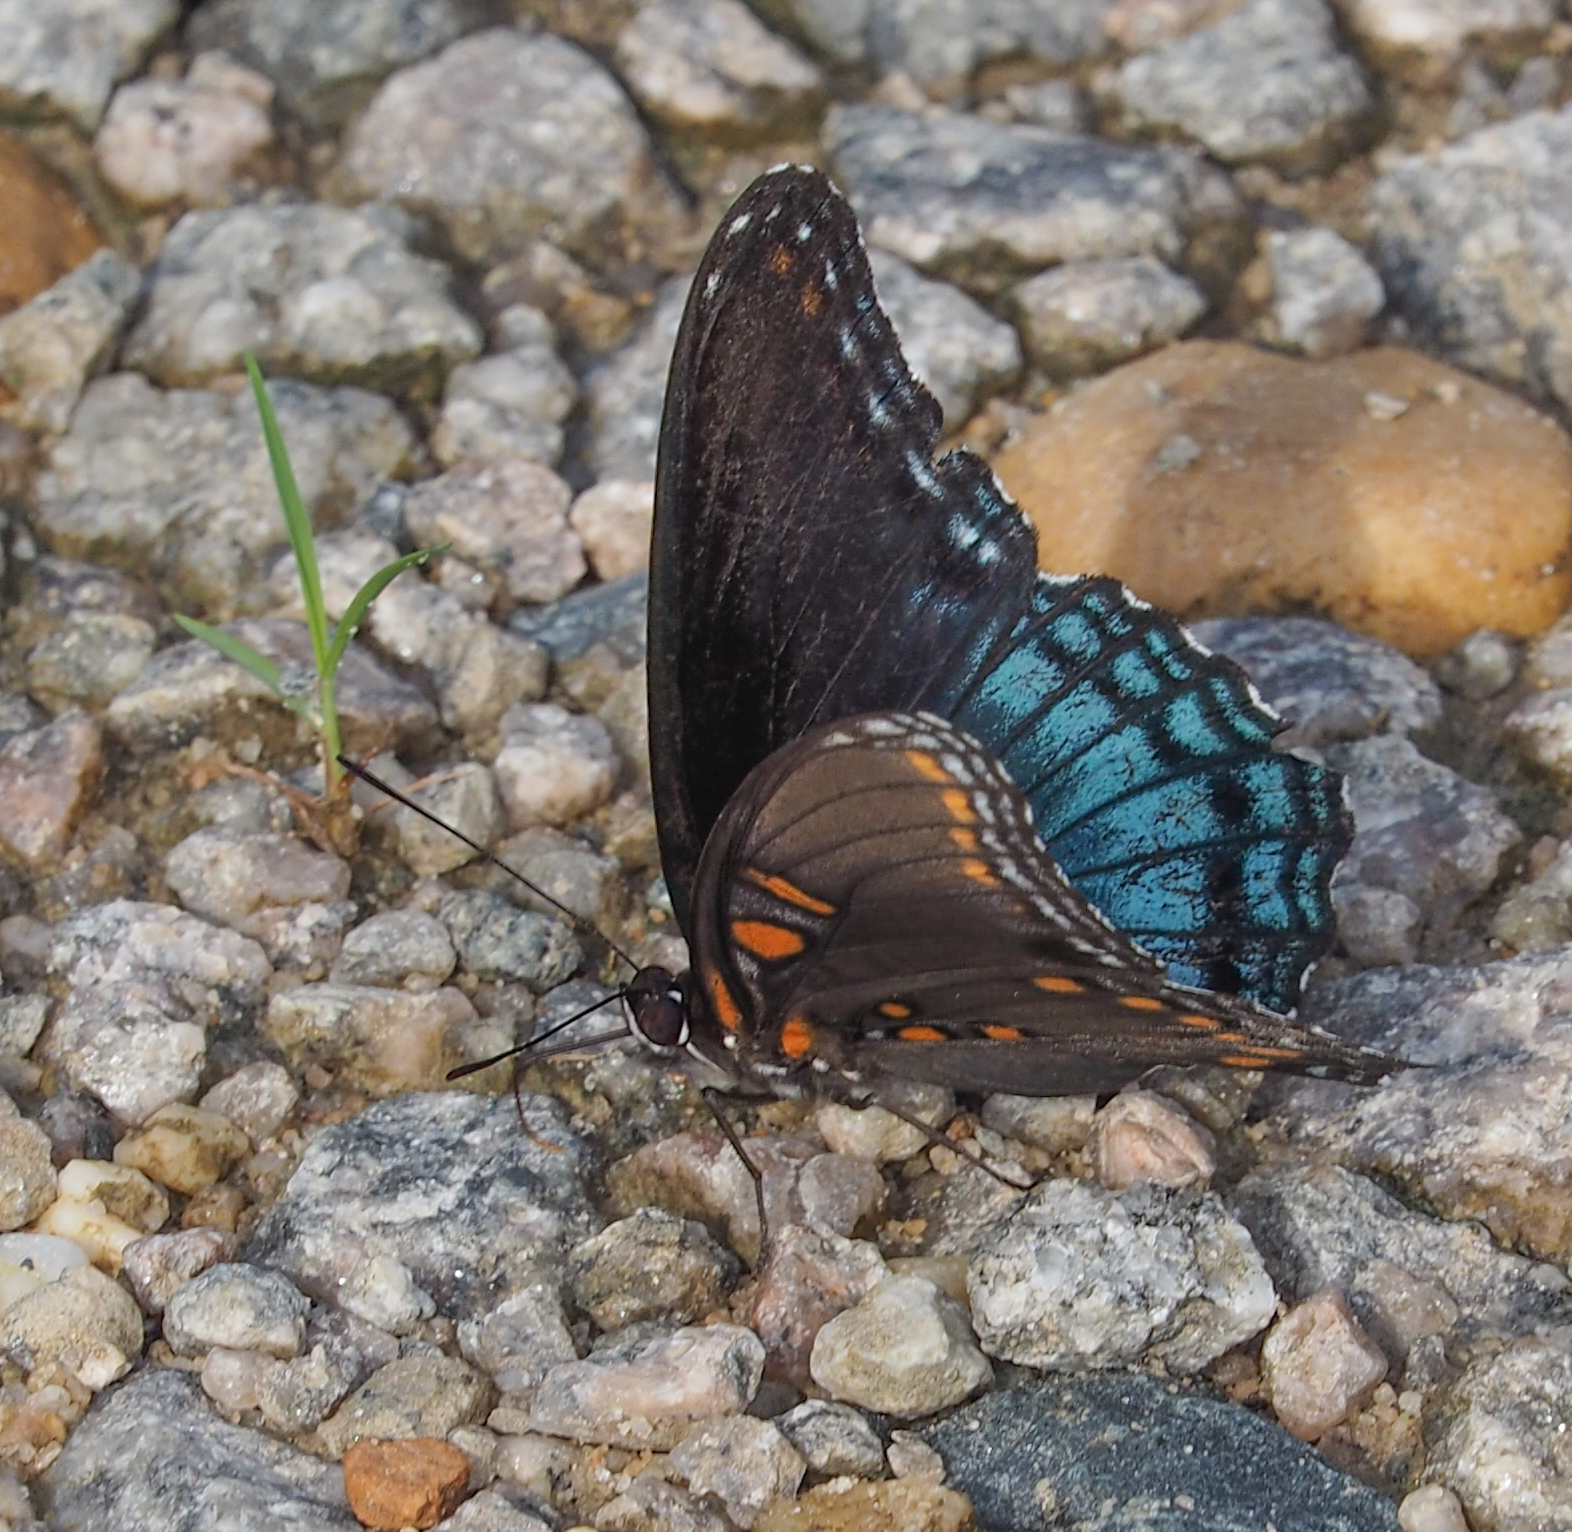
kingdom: Animalia
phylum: Arthropoda
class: Insecta
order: Lepidoptera
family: Nymphalidae
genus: Limenitis
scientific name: Limenitis astyanax
